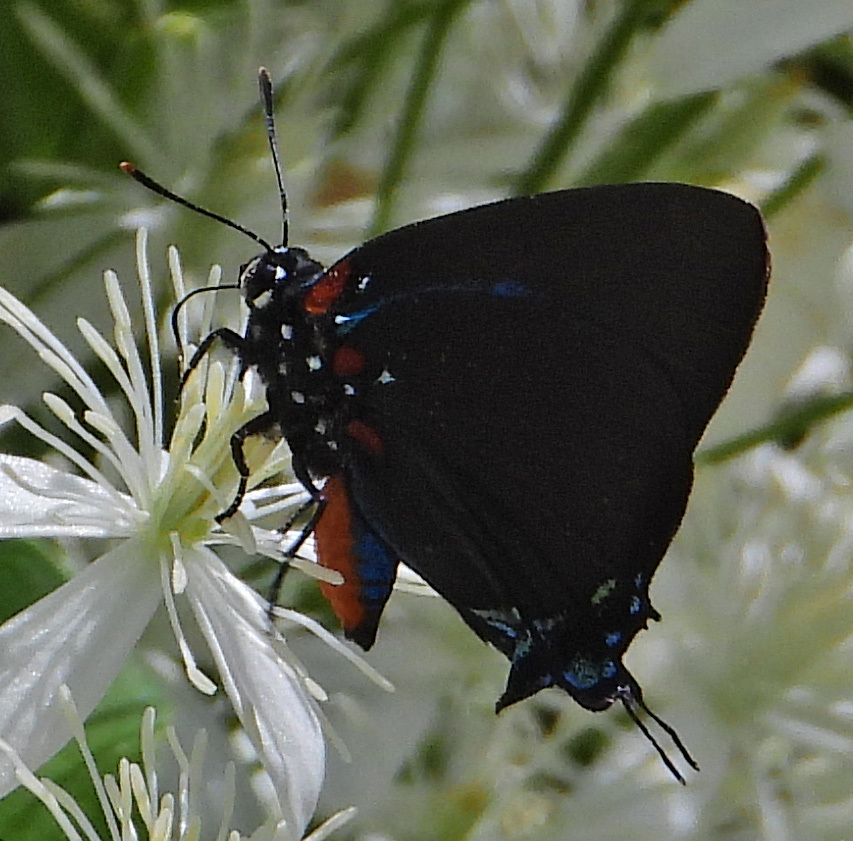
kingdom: Animalia
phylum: Arthropoda
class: Insecta
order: Lepidoptera
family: Lycaenidae
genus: Atlides
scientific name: Atlides halesus
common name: Great purple hairstreak
